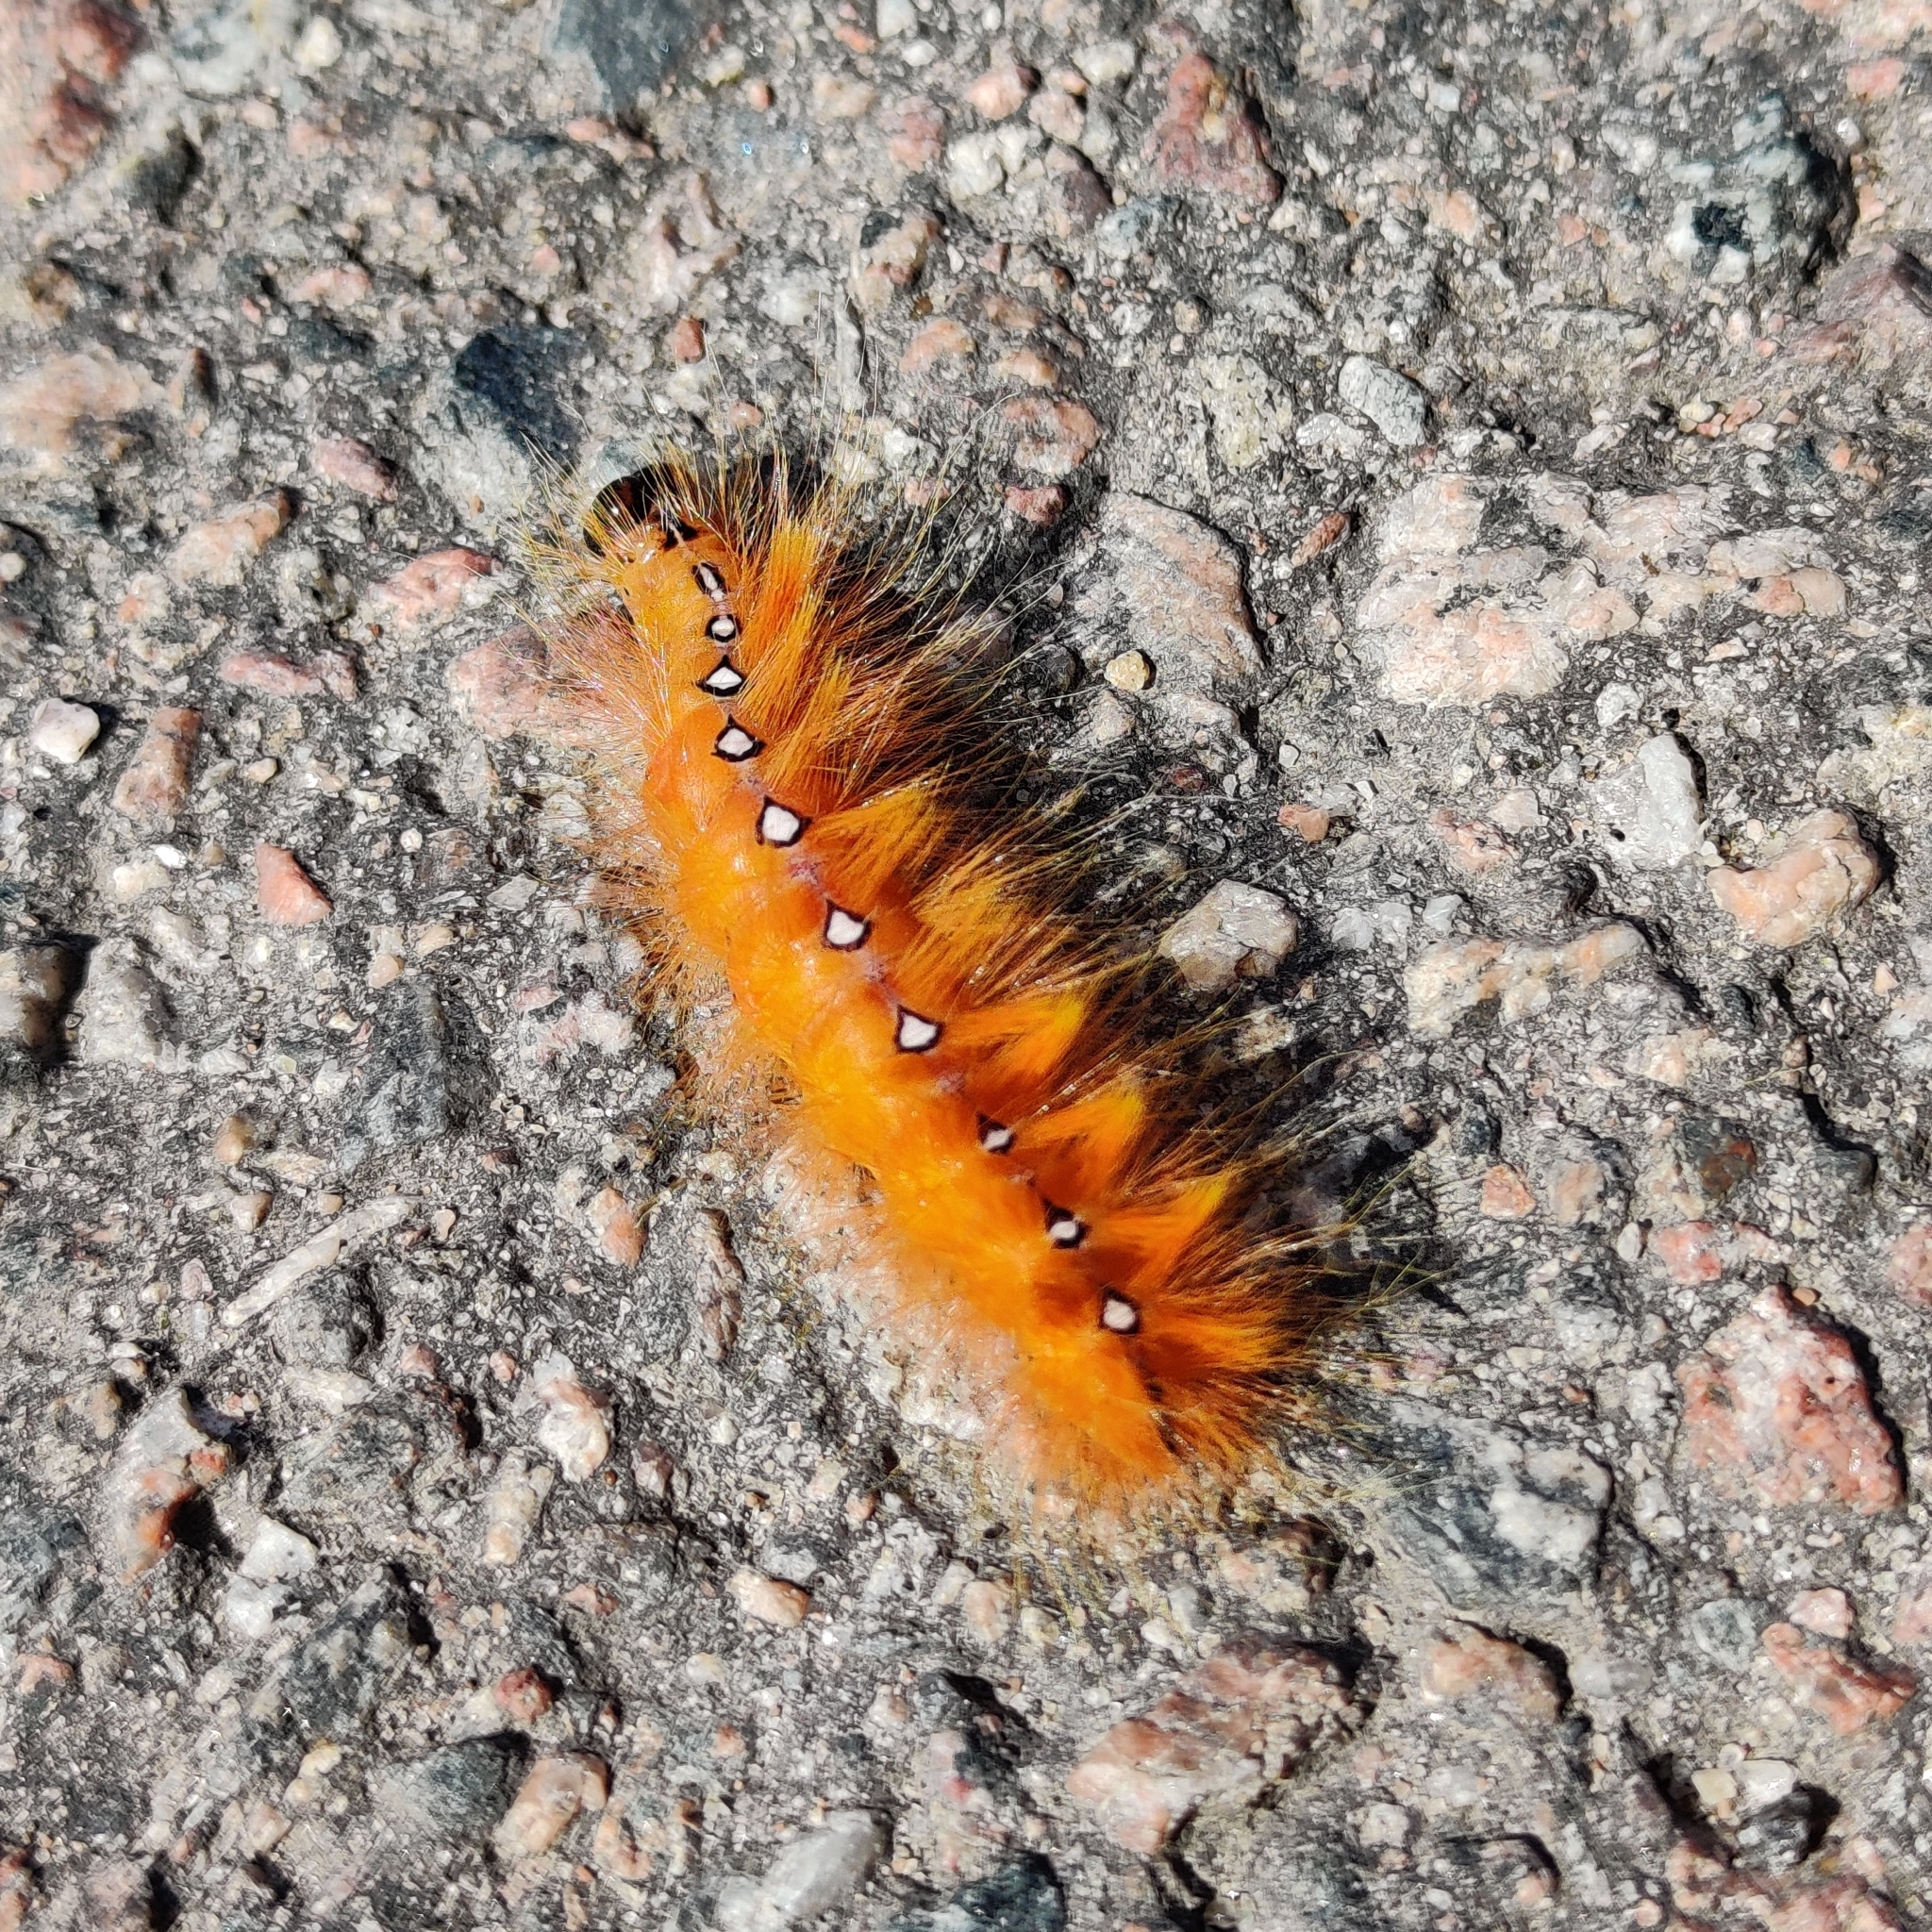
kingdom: Animalia
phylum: Arthropoda
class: Insecta
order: Lepidoptera
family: Noctuidae
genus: Acronicta
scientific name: Acronicta aceris
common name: Sycamore
